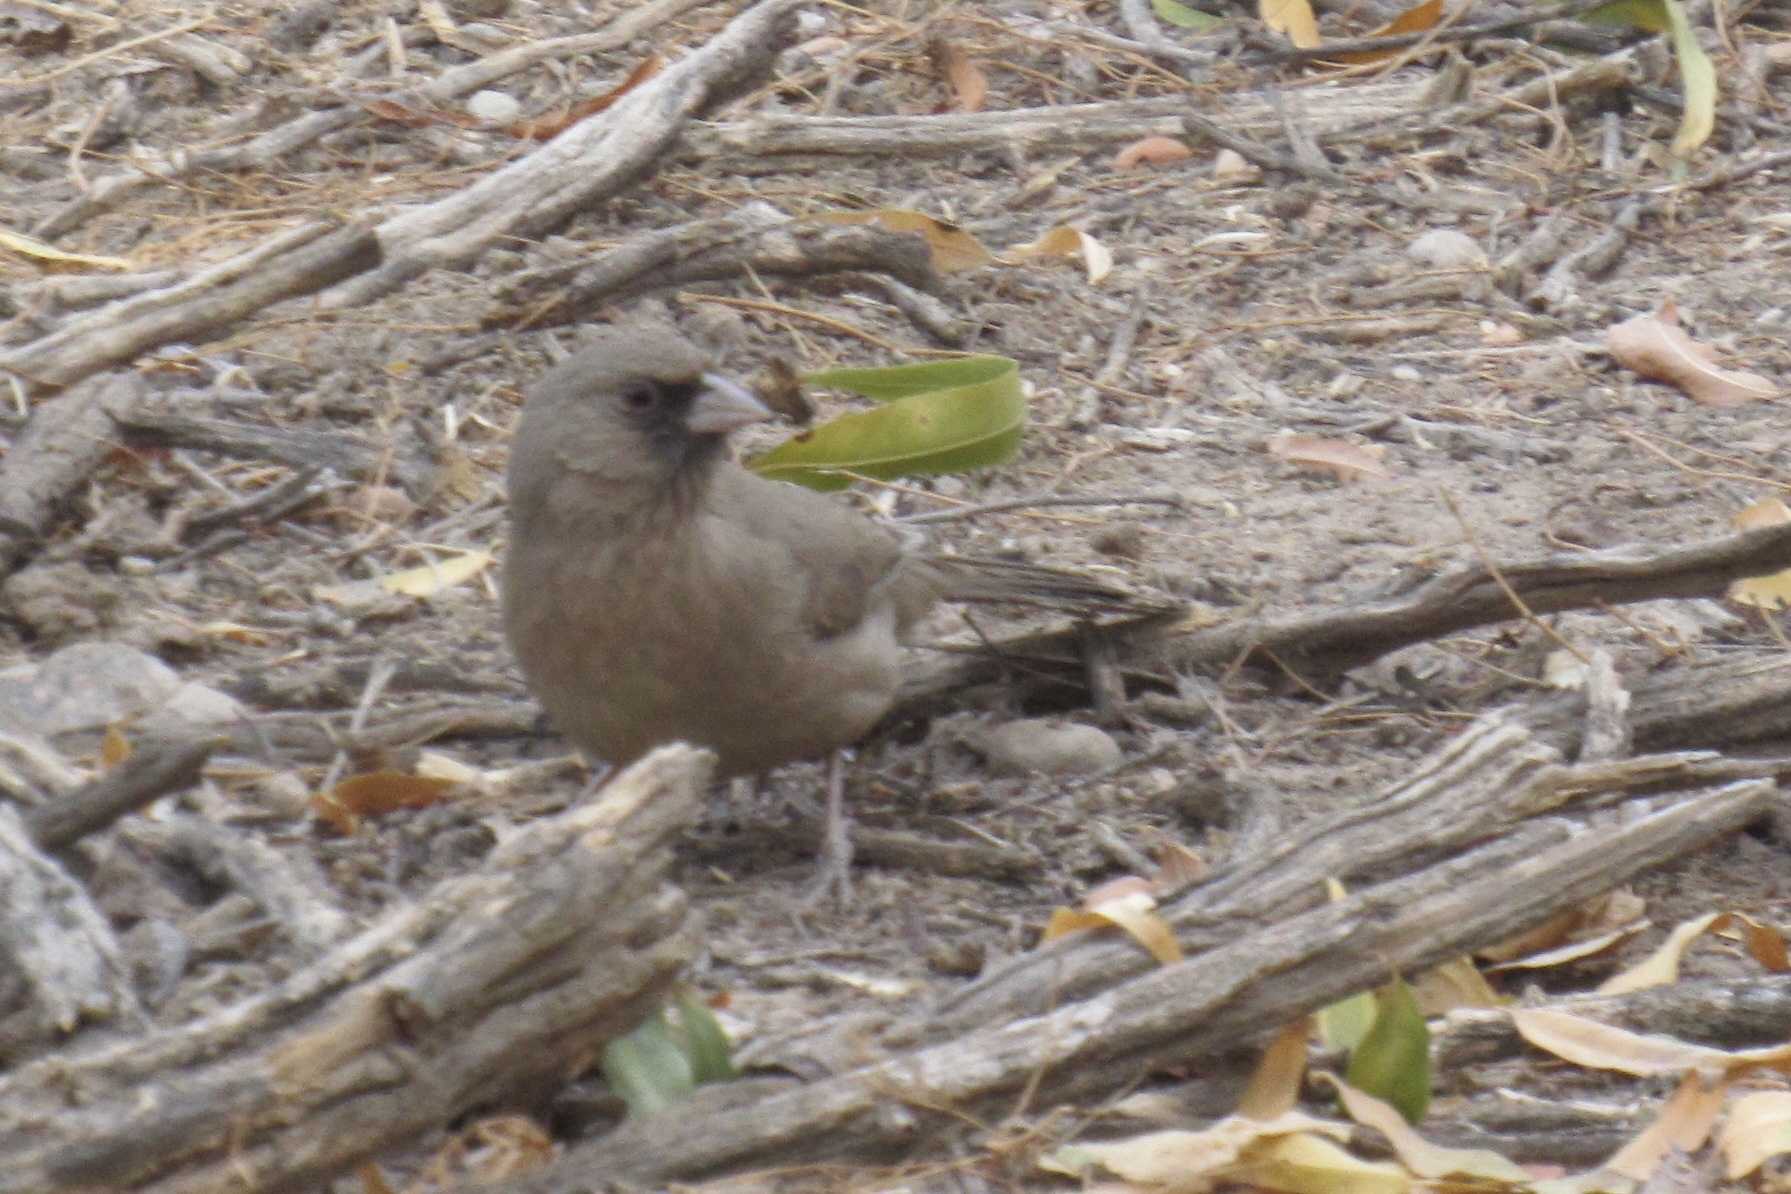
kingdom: Animalia
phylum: Chordata
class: Aves
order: Passeriformes
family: Passerellidae
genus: Melozone
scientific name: Melozone aberti
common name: Abert's towhee
